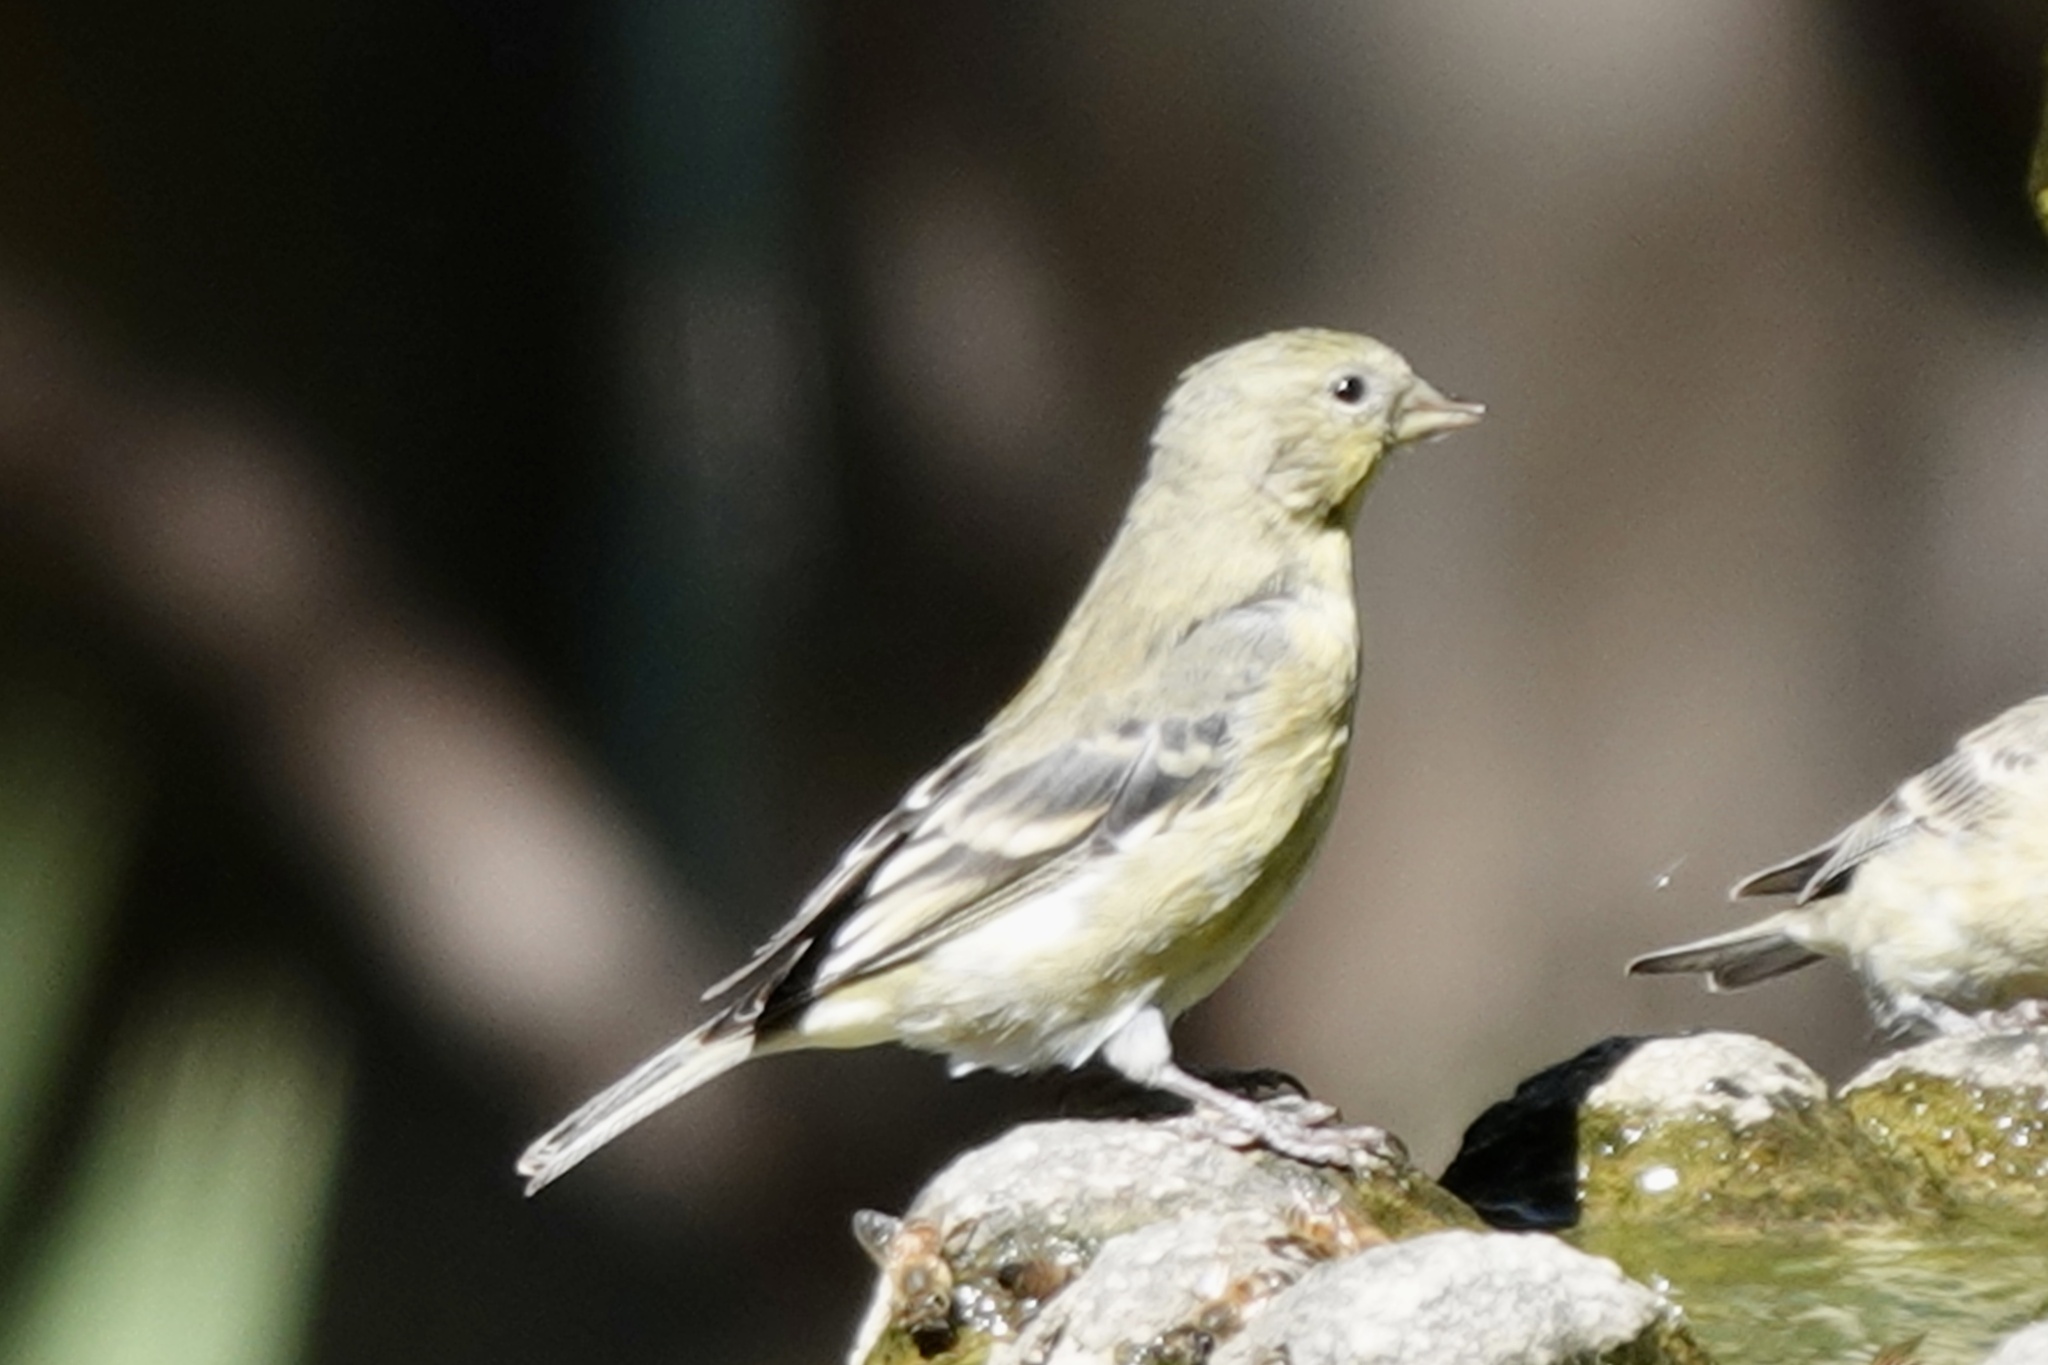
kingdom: Animalia
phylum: Chordata
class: Aves
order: Passeriformes
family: Fringillidae
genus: Spinus
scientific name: Spinus psaltria
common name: Lesser goldfinch
